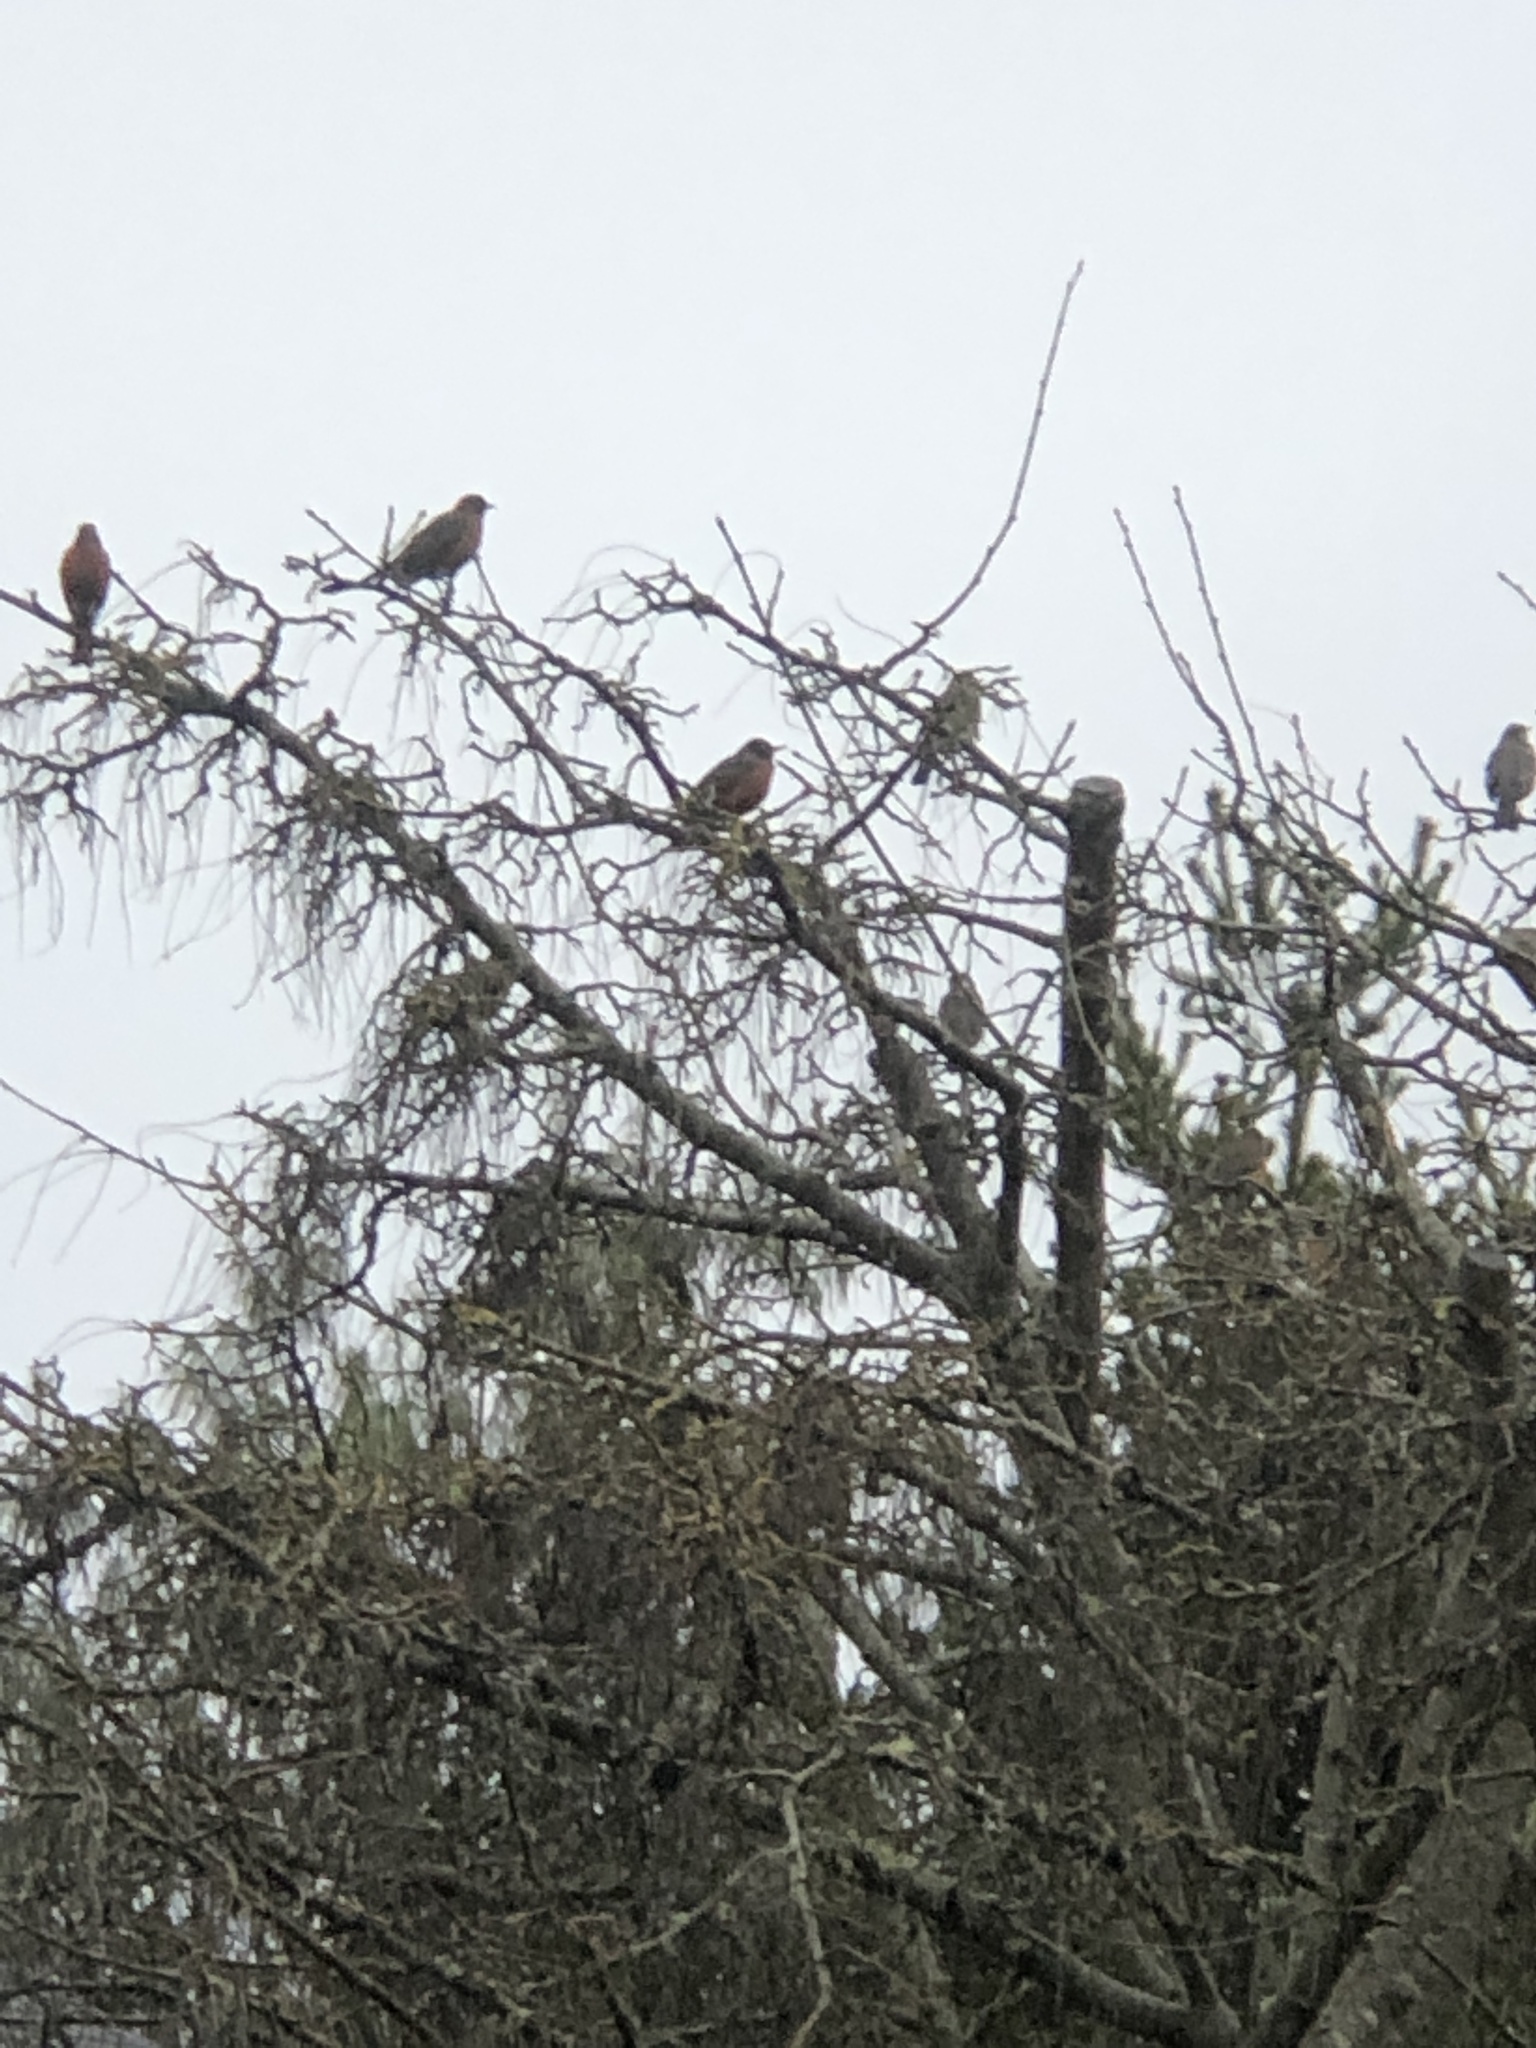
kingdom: Animalia
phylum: Chordata
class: Aves
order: Passeriformes
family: Turdidae
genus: Turdus
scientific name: Turdus migratorius
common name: American robin
